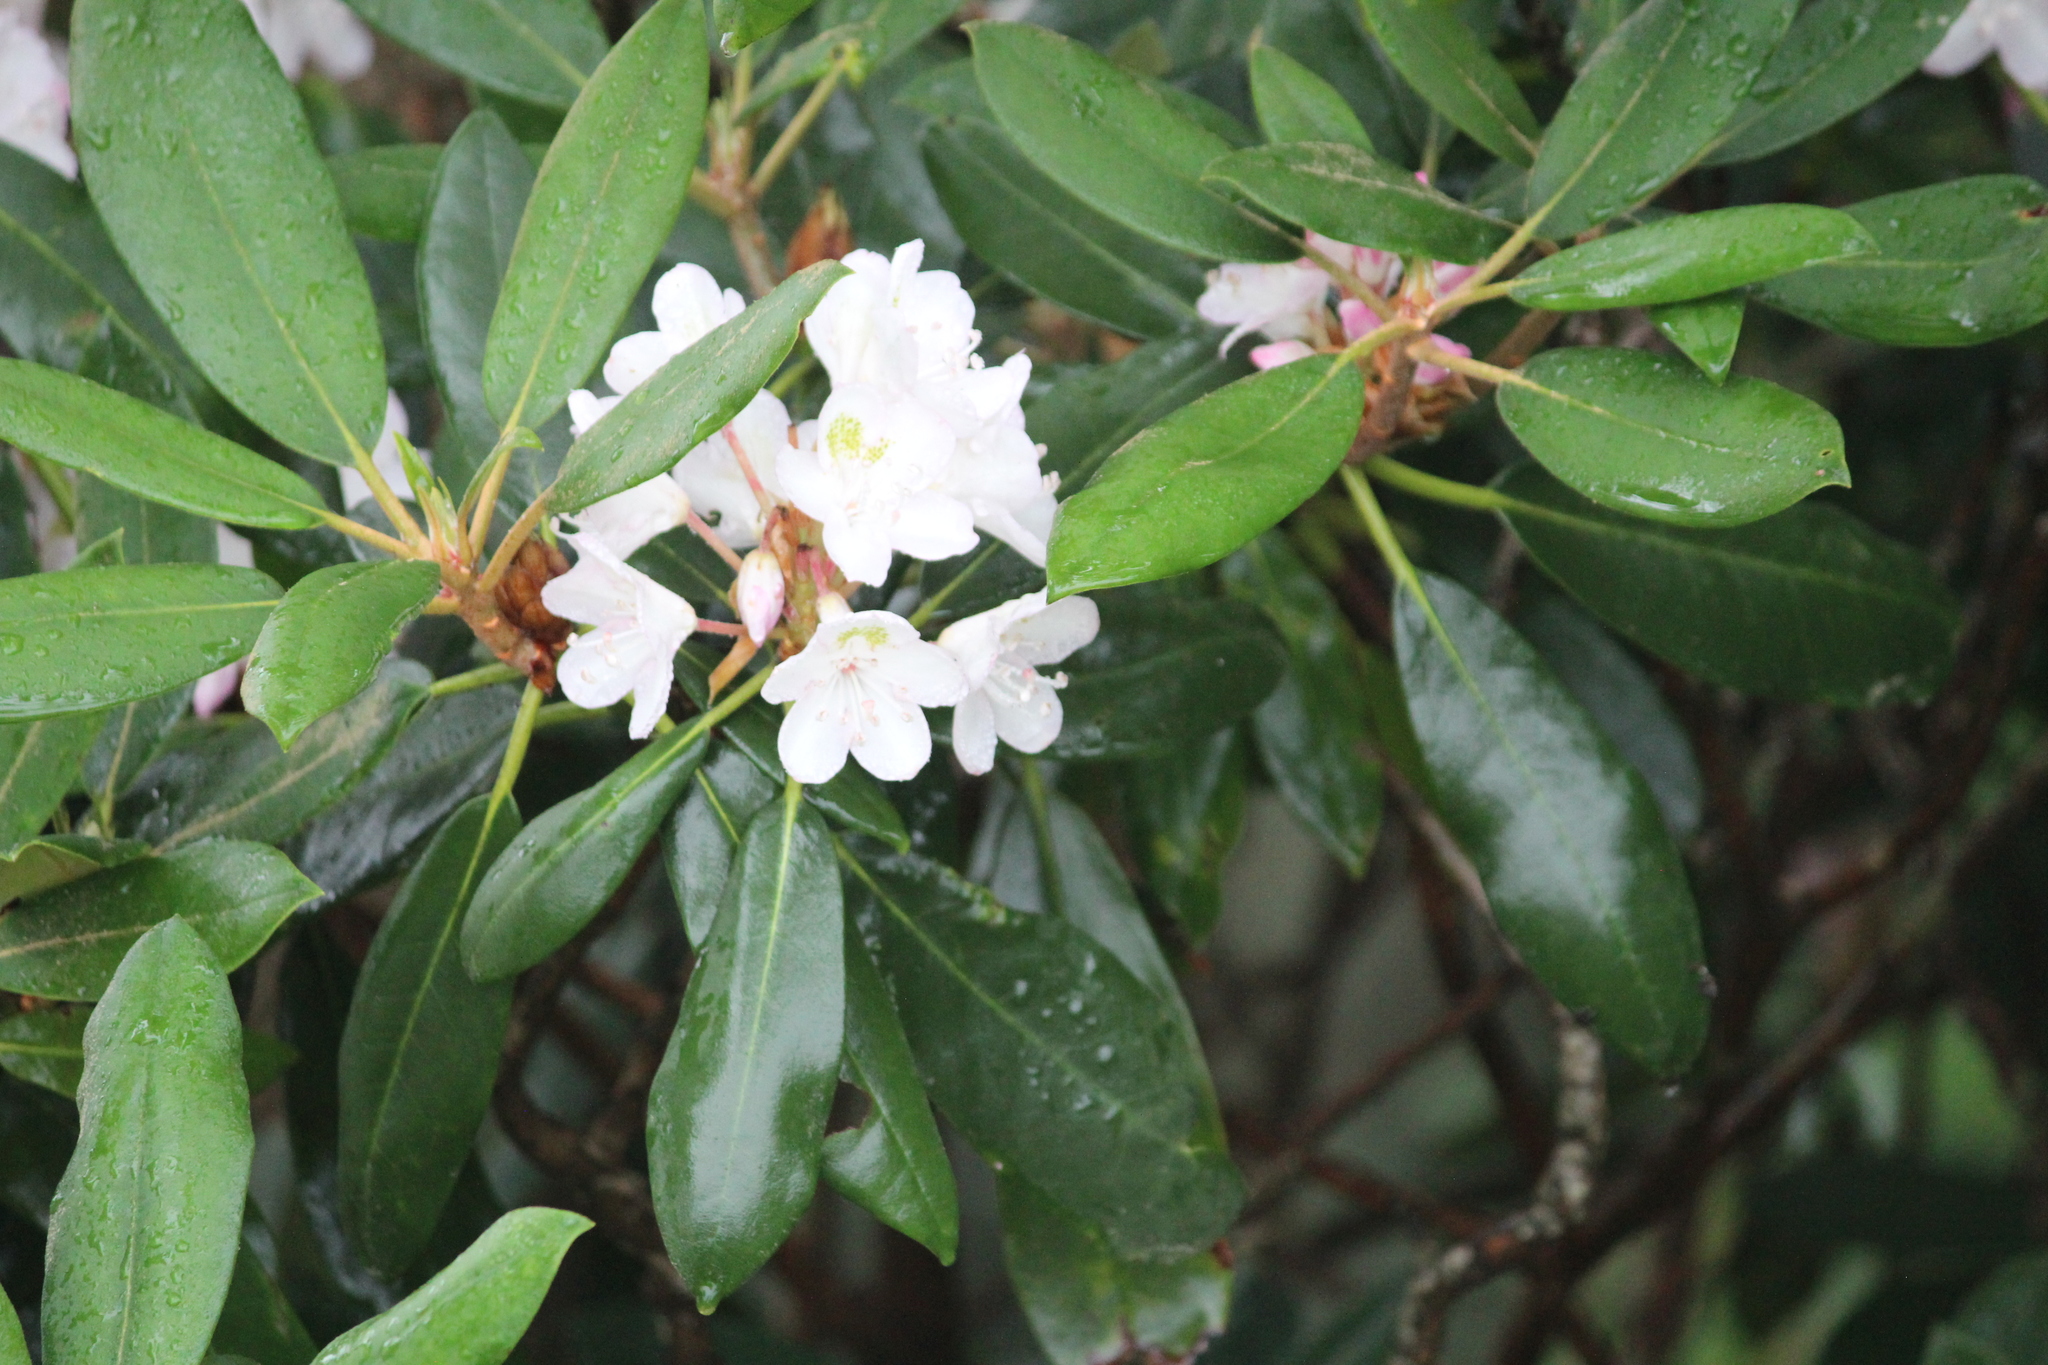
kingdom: Plantae
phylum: Tracheophyta
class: Magnoliopsida
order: Ericales
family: Ericaceae
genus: Rhododendron
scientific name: Rhododendron maximum
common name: Great rhododendron
